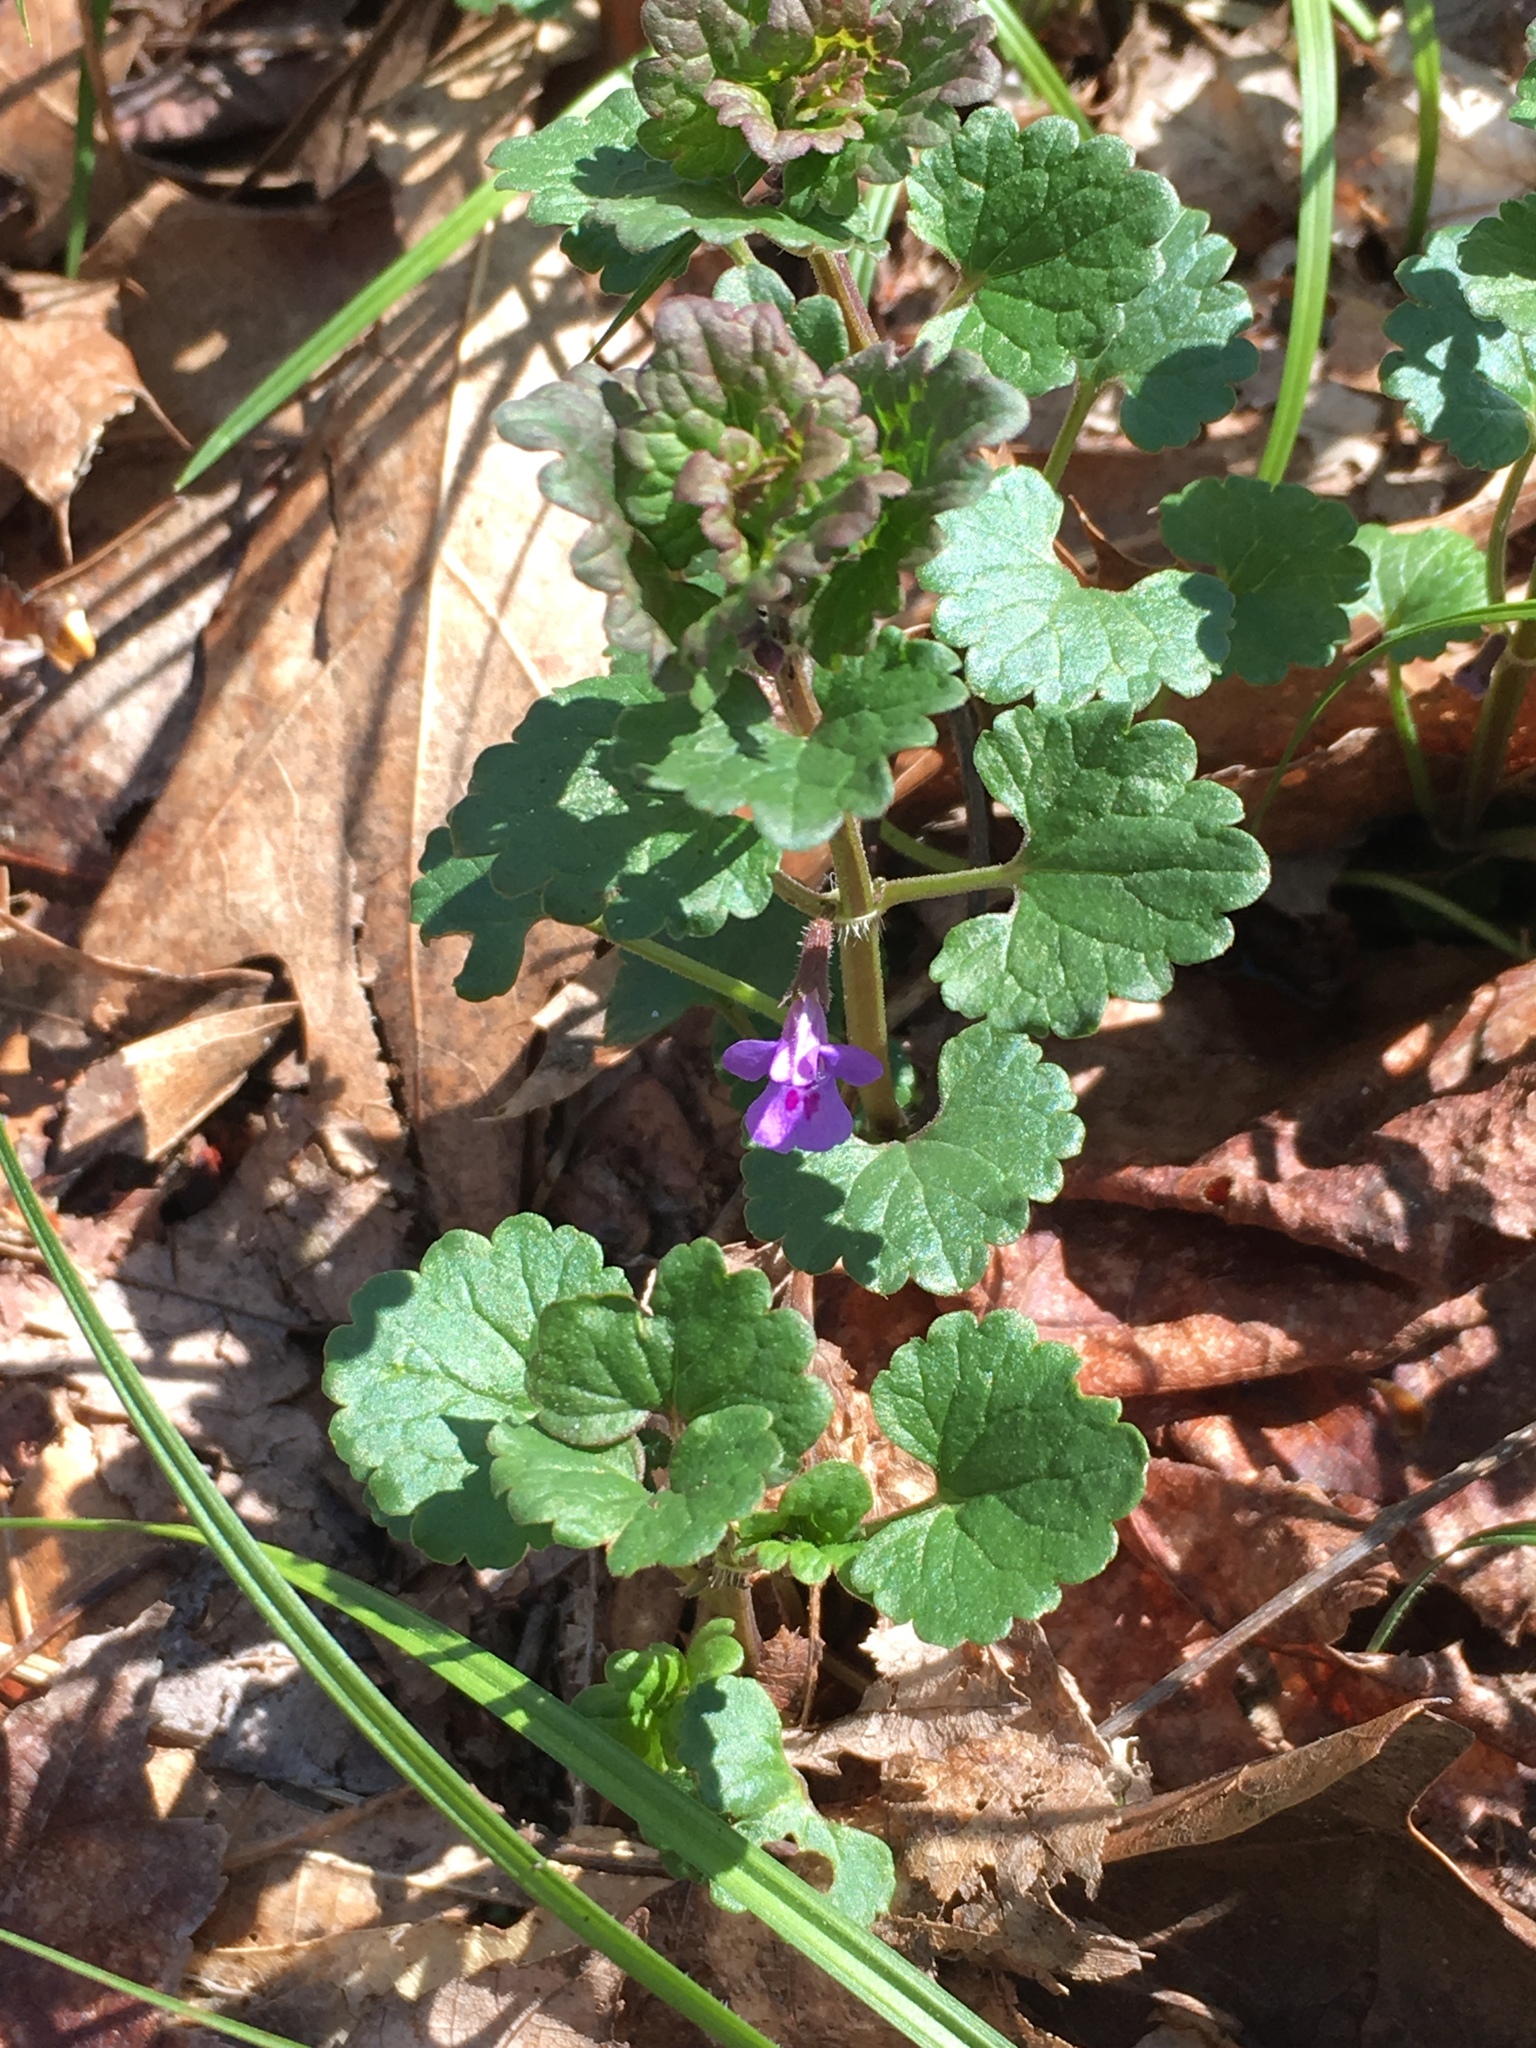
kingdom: Plantae
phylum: Tracheophyta
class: Magnoliopsida
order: Lamiales
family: Lamiaceae
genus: Glechoma
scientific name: Glechoma hederacea
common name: Ground ivy
